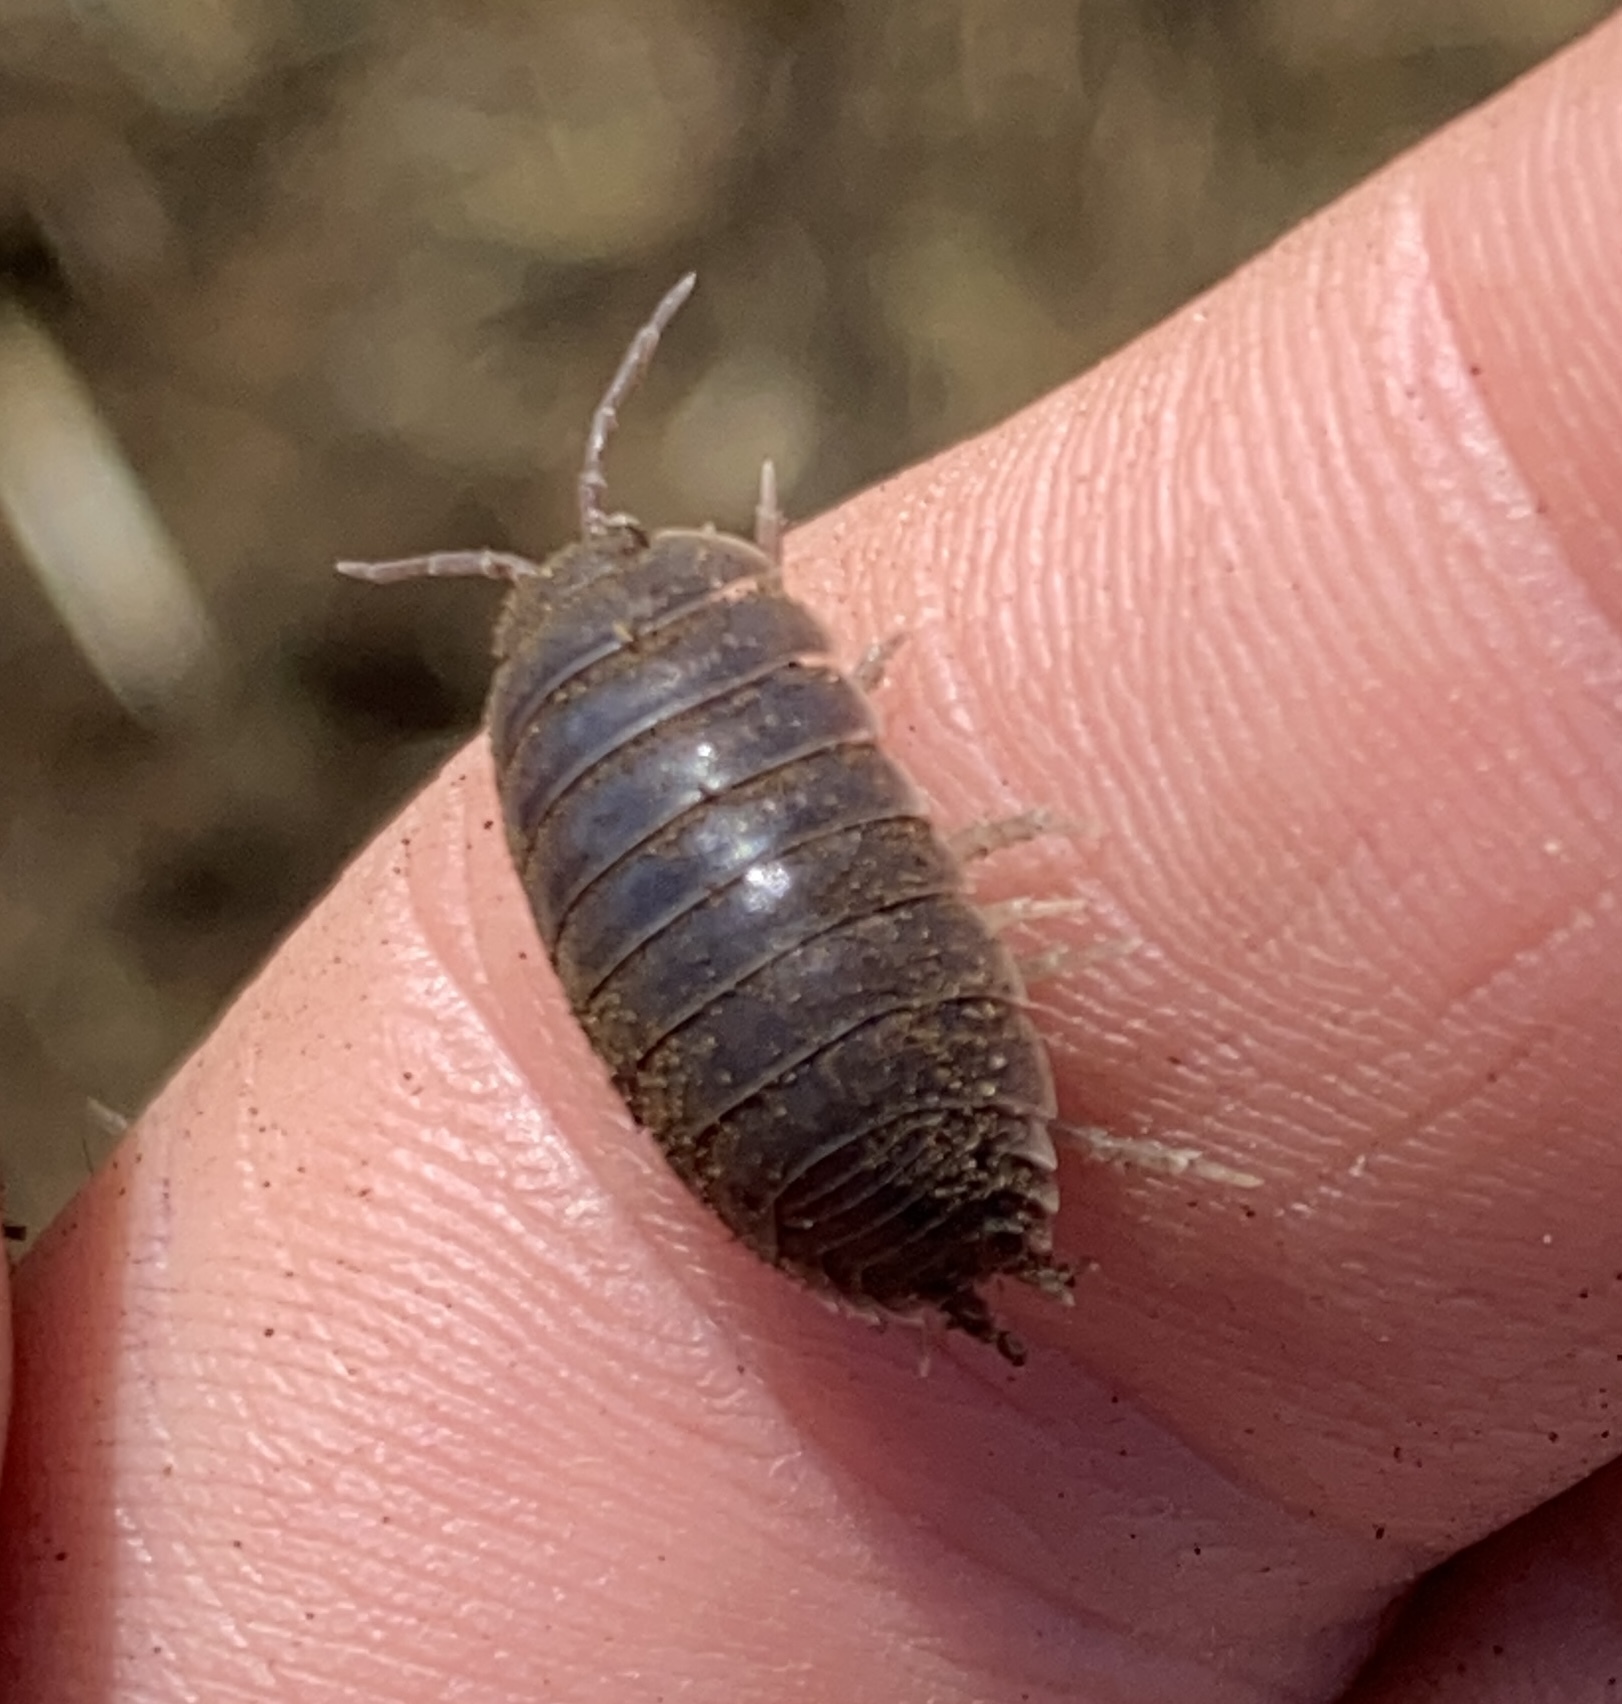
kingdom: Animalia
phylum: Arthropoda
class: Malacostraca
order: Isopoda
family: Porcellionidae
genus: Porcellio
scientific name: Porcellio laevis
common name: Swift woodlouse
